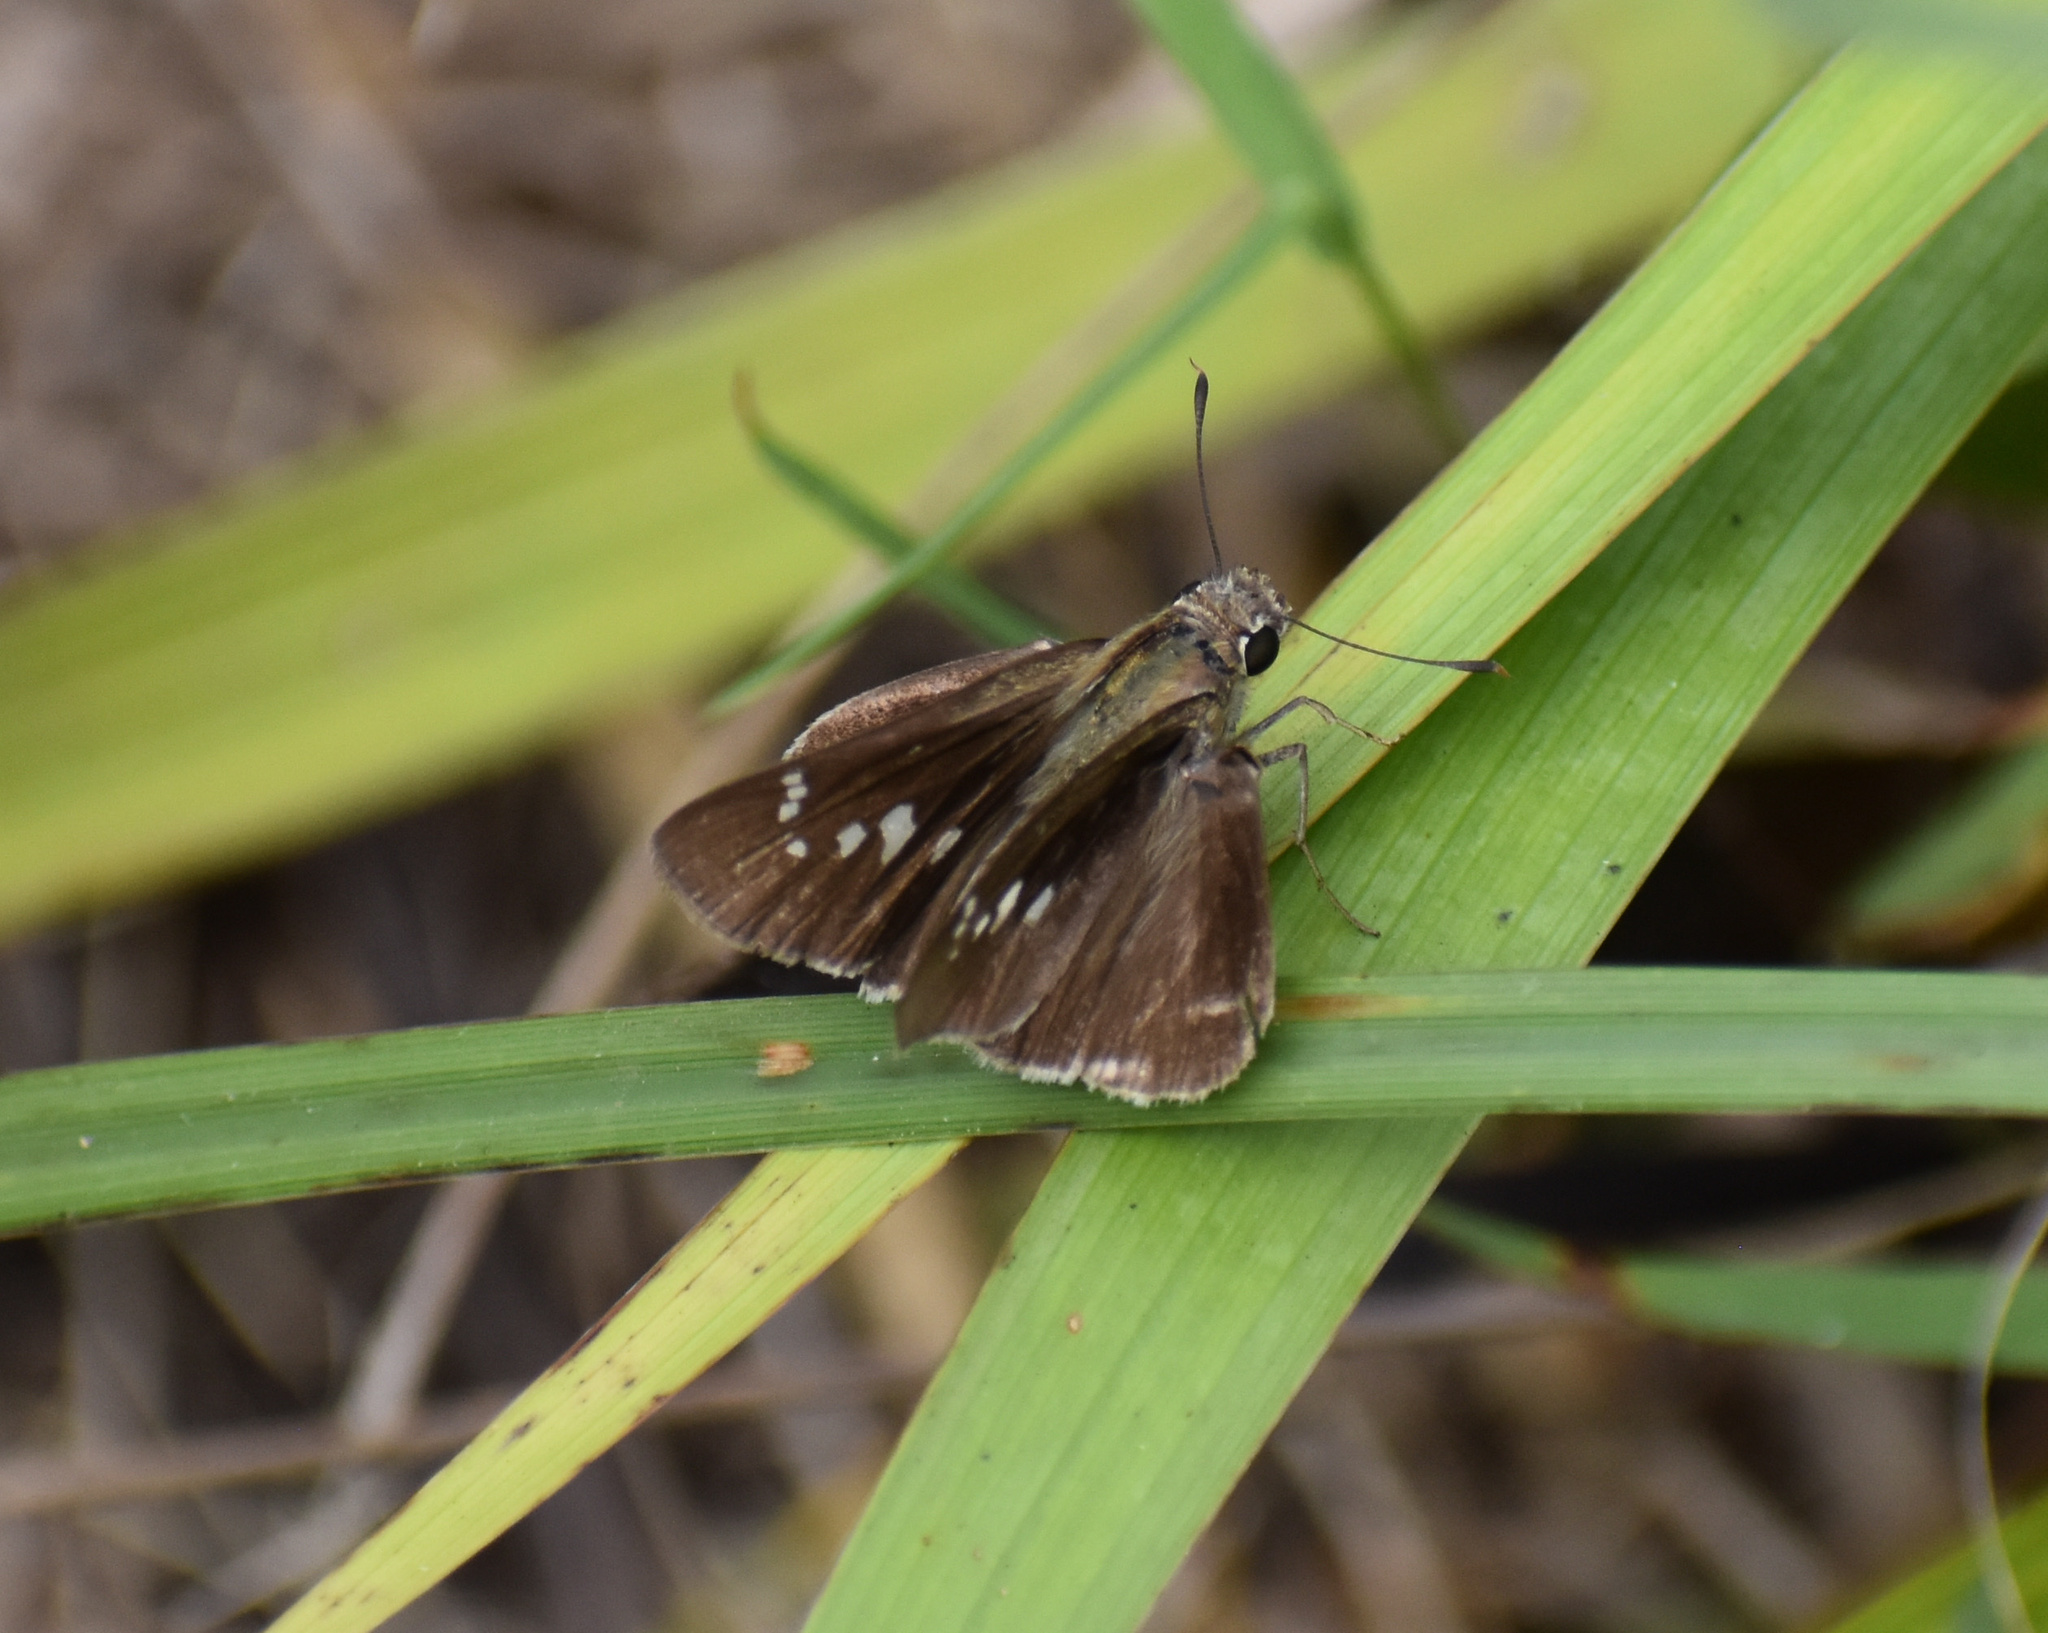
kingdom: Animalia
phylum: Arthropoda
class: Insecta
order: Lepidoptera
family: Hesperiidae
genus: Baoris
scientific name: Baoris fatuellus
